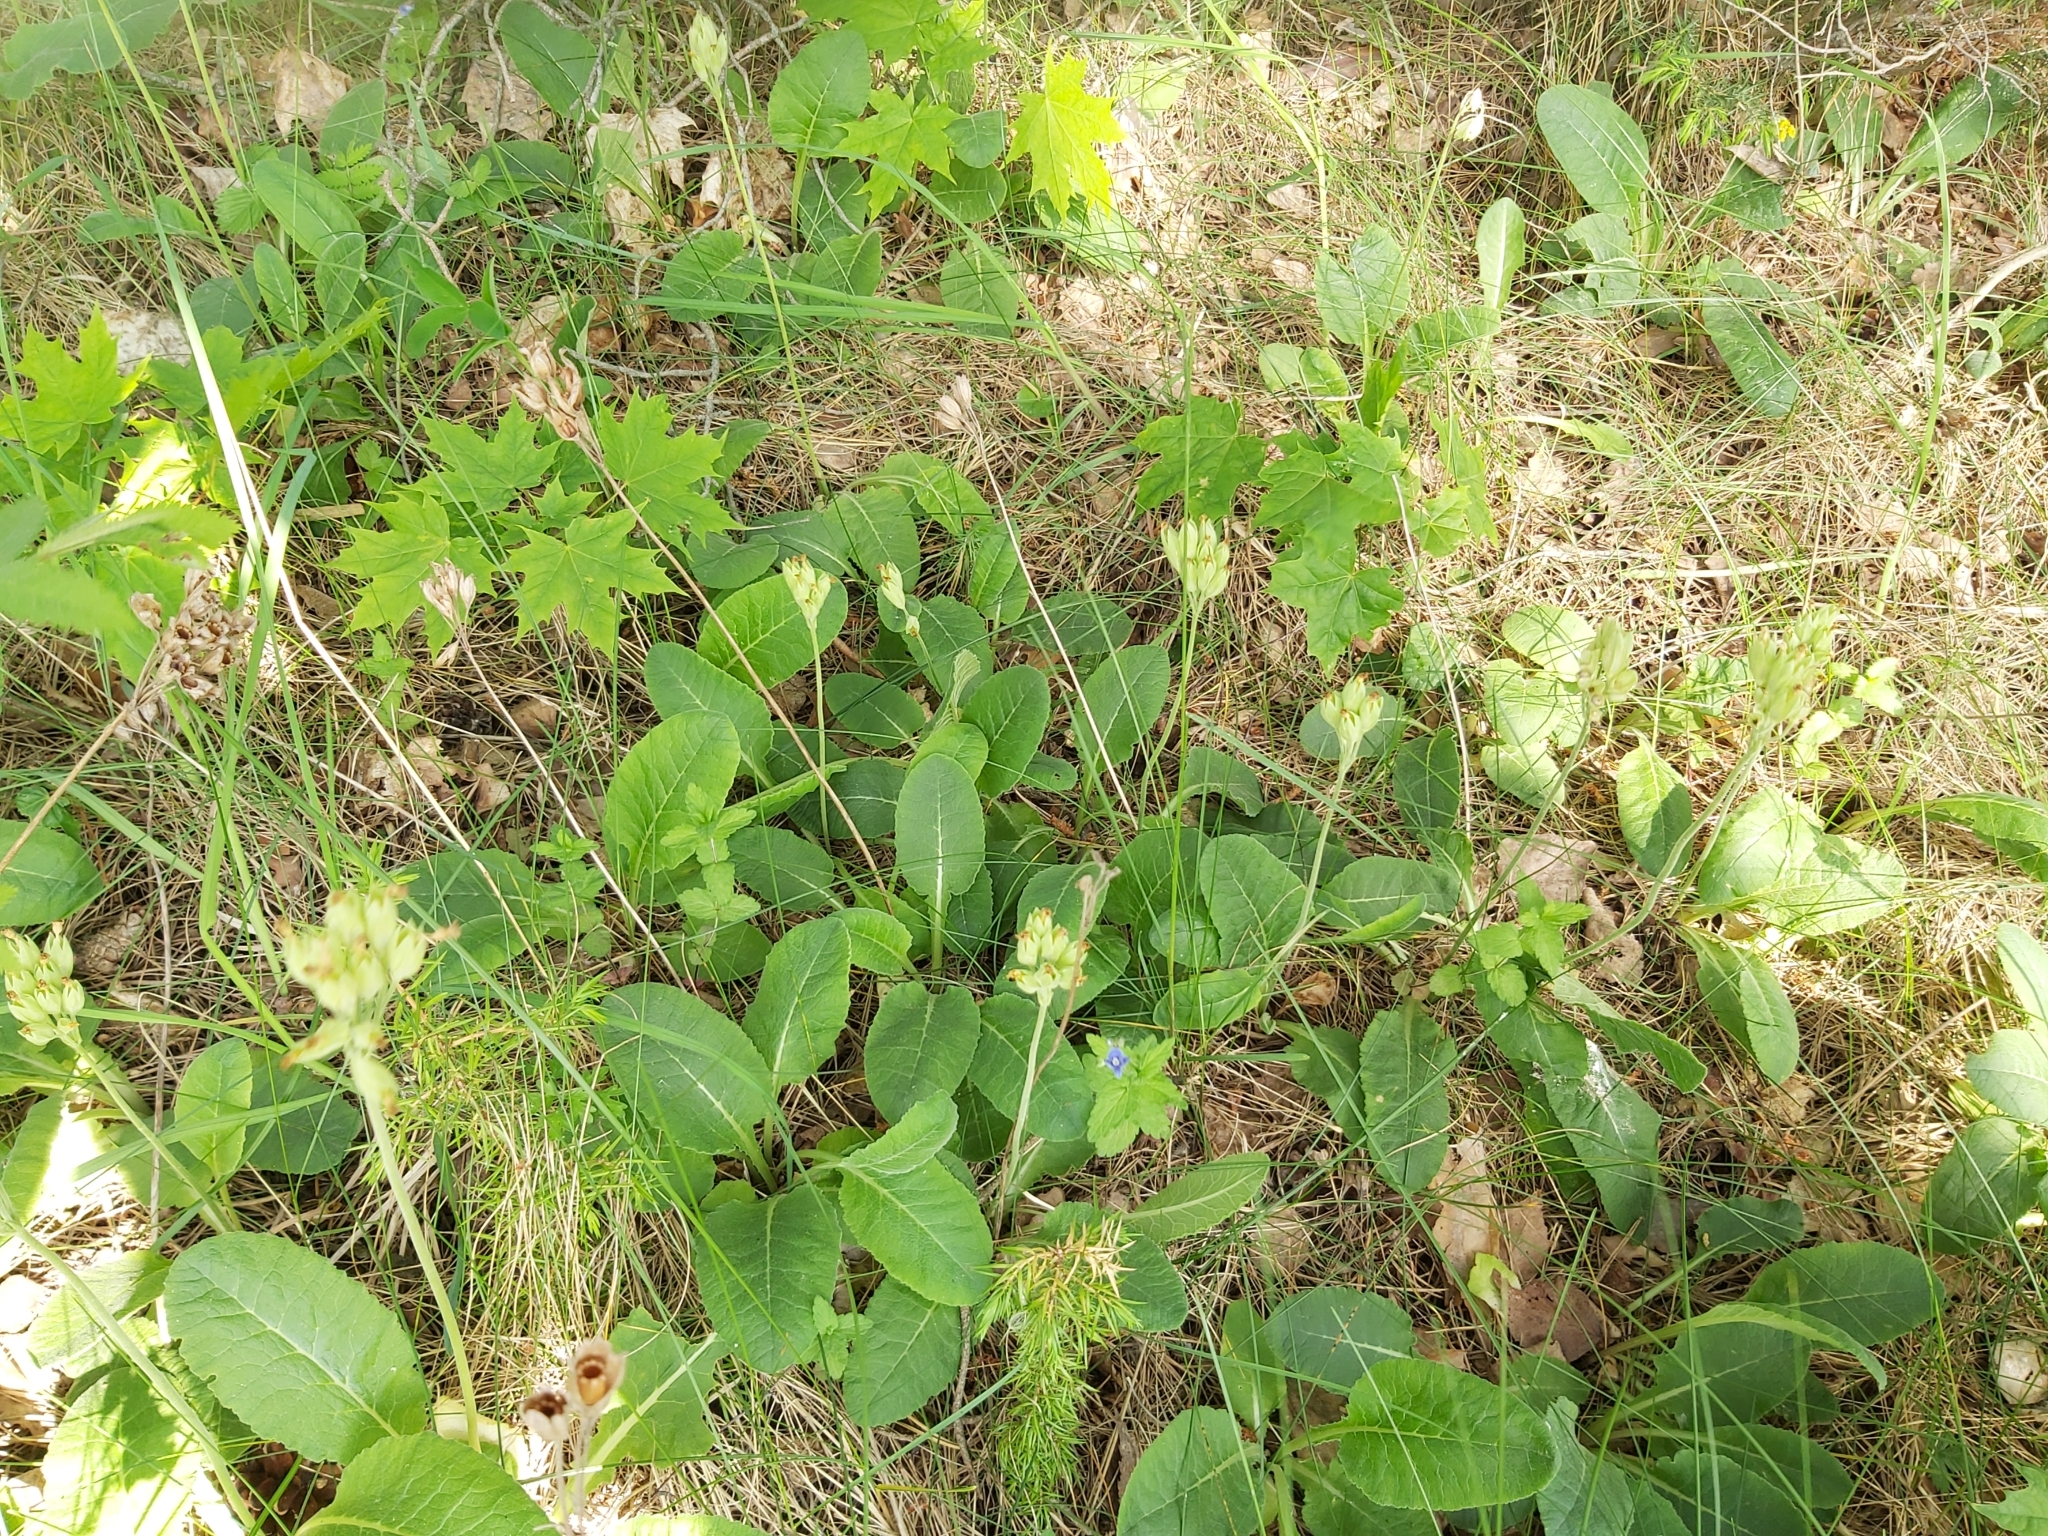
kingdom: Plantae
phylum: Tracheophyta
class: Magnoliopsida
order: Ericales
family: Primulaceae
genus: Primula
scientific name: Primula veris
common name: Cowslip
